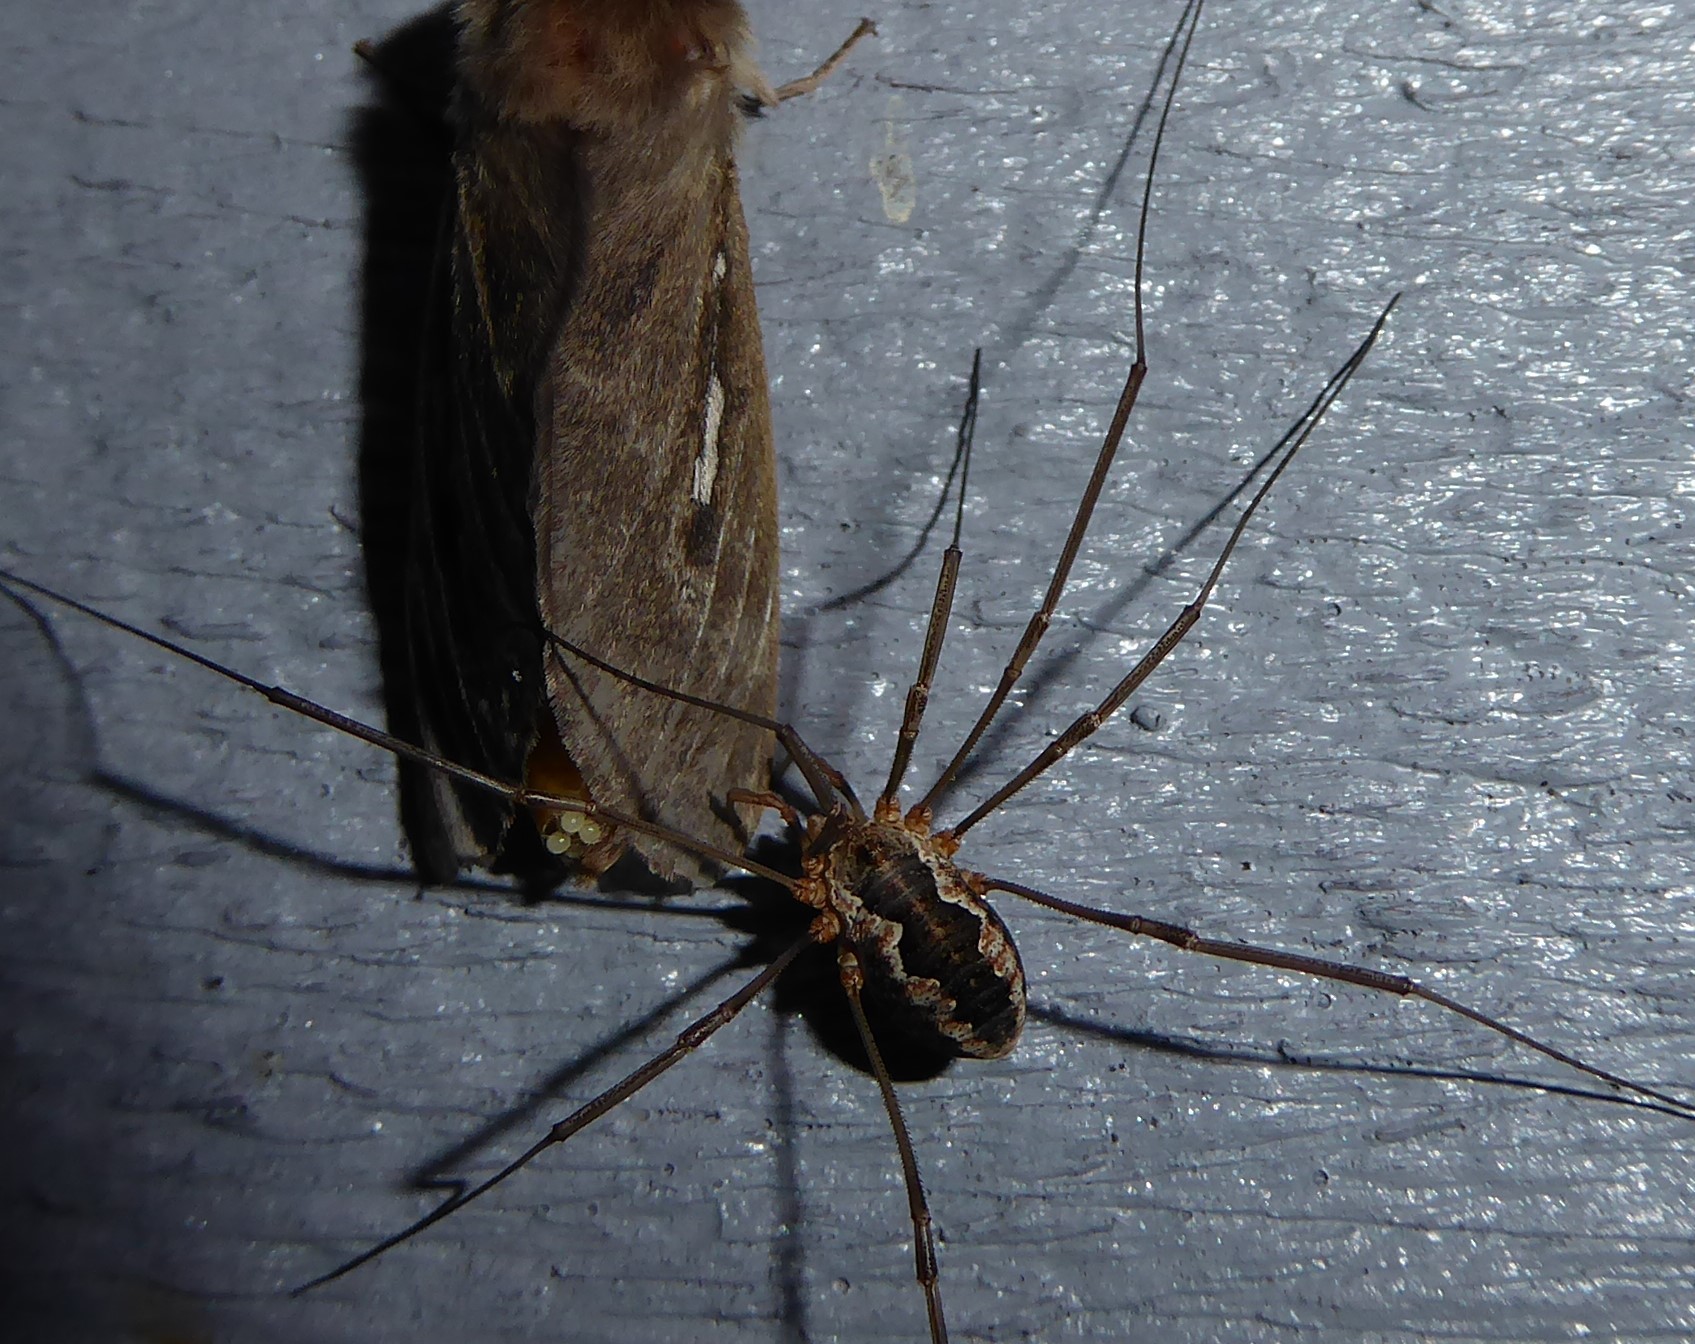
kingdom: Animalia
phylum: Arthropoda
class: Arachnida
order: Opiliones
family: Phalangiidae
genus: Phalangium
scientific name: Phalangium opilio
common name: Daddy longleg
